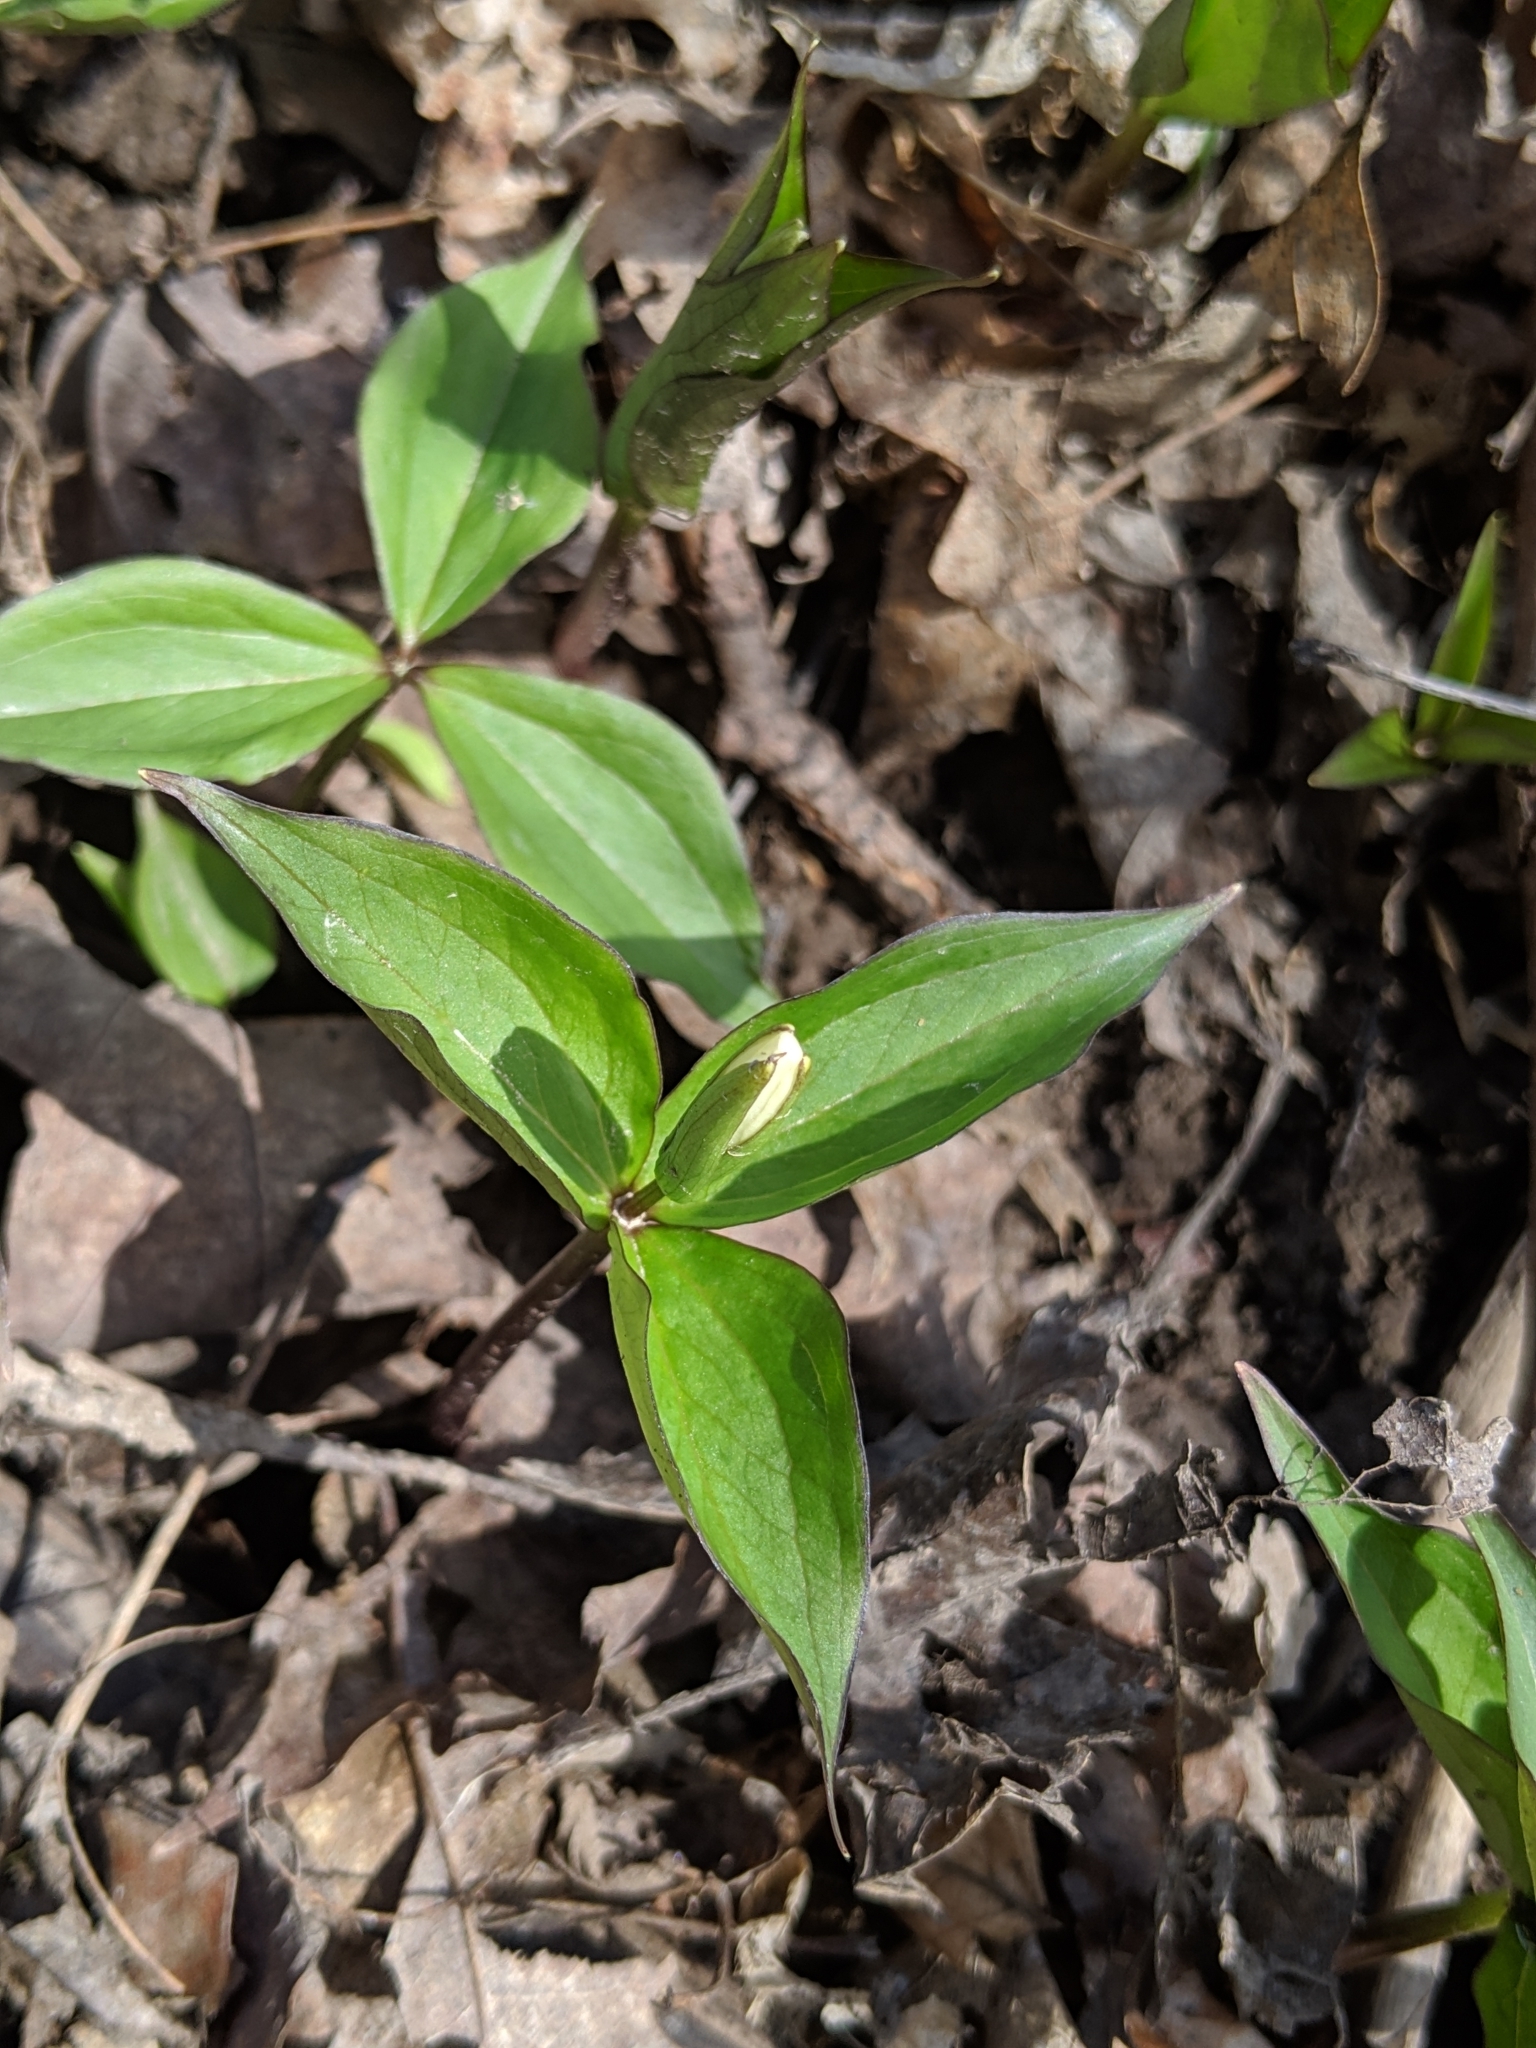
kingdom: Plantae
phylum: Tracheophyta
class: Liliopsida
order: Liliales
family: Melanthiaceae
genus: Trillium
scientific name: Trillium grandiflorum
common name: Great white trillium
